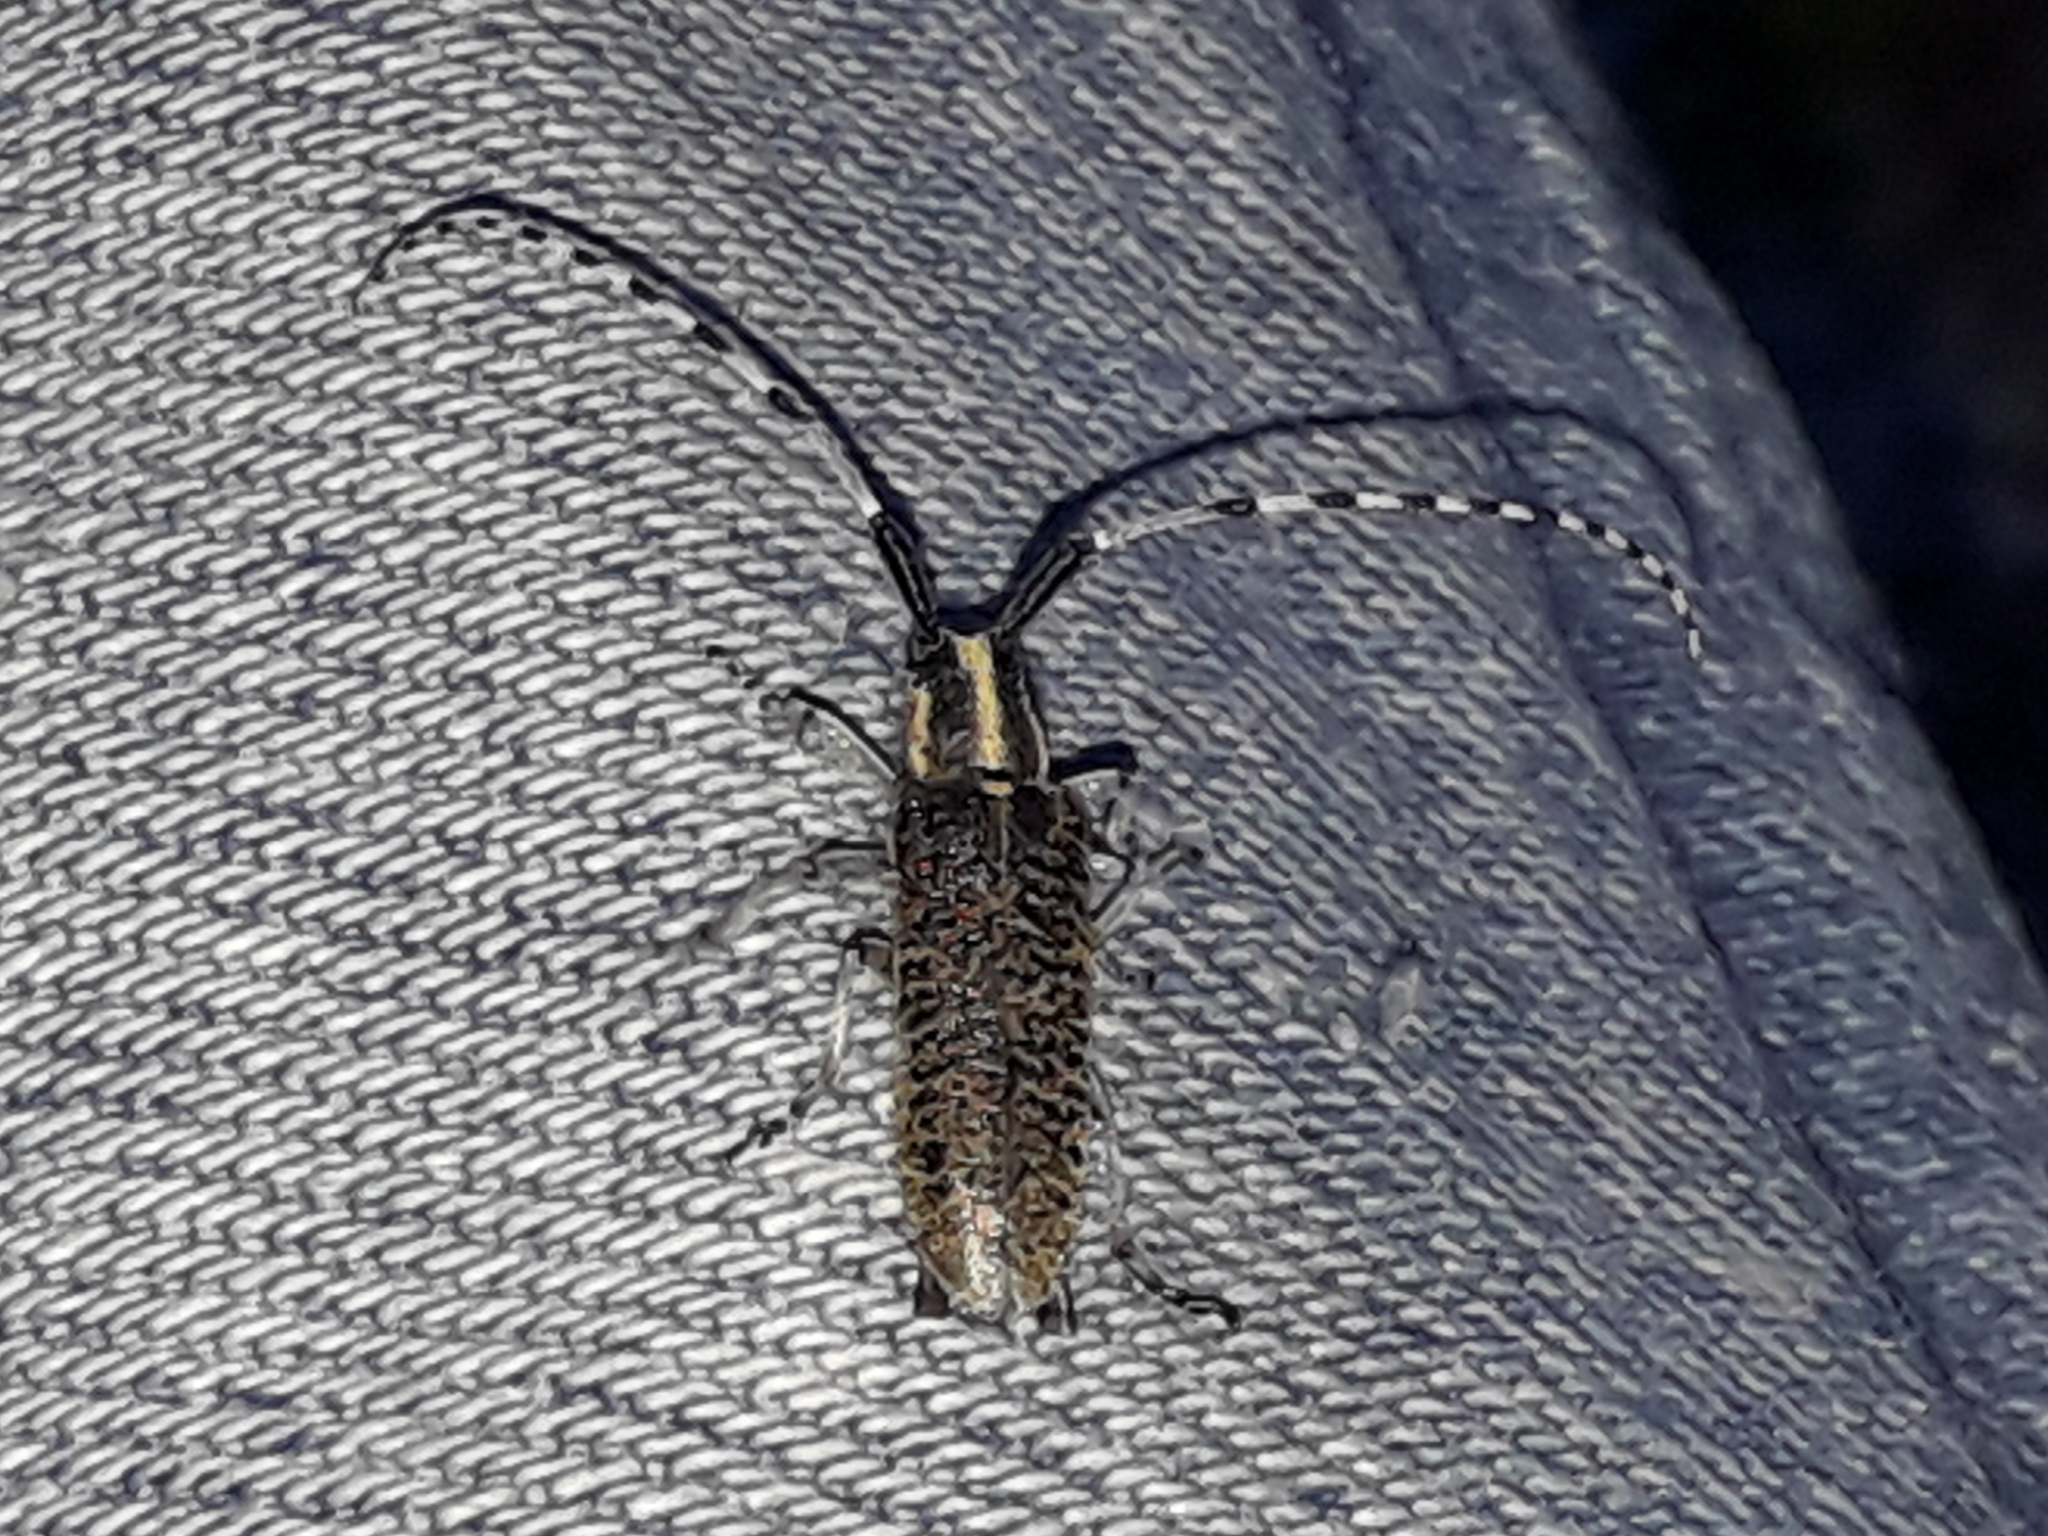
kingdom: Animalia
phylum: Arthropoda
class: Insecta
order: Coleoptera
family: Cerambycidae
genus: Agapanthia
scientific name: Agapanthia villosoviridescens
